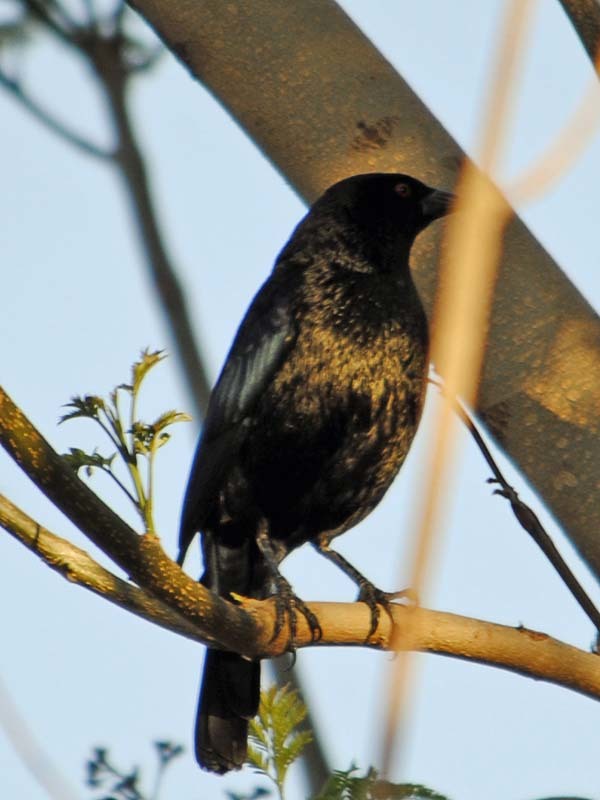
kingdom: Animalia
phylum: Chordata
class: Aves
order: Passeriformes
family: Icteridae
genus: Molothrus
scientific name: Molothrus aeneus
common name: Bronzed cowbird
